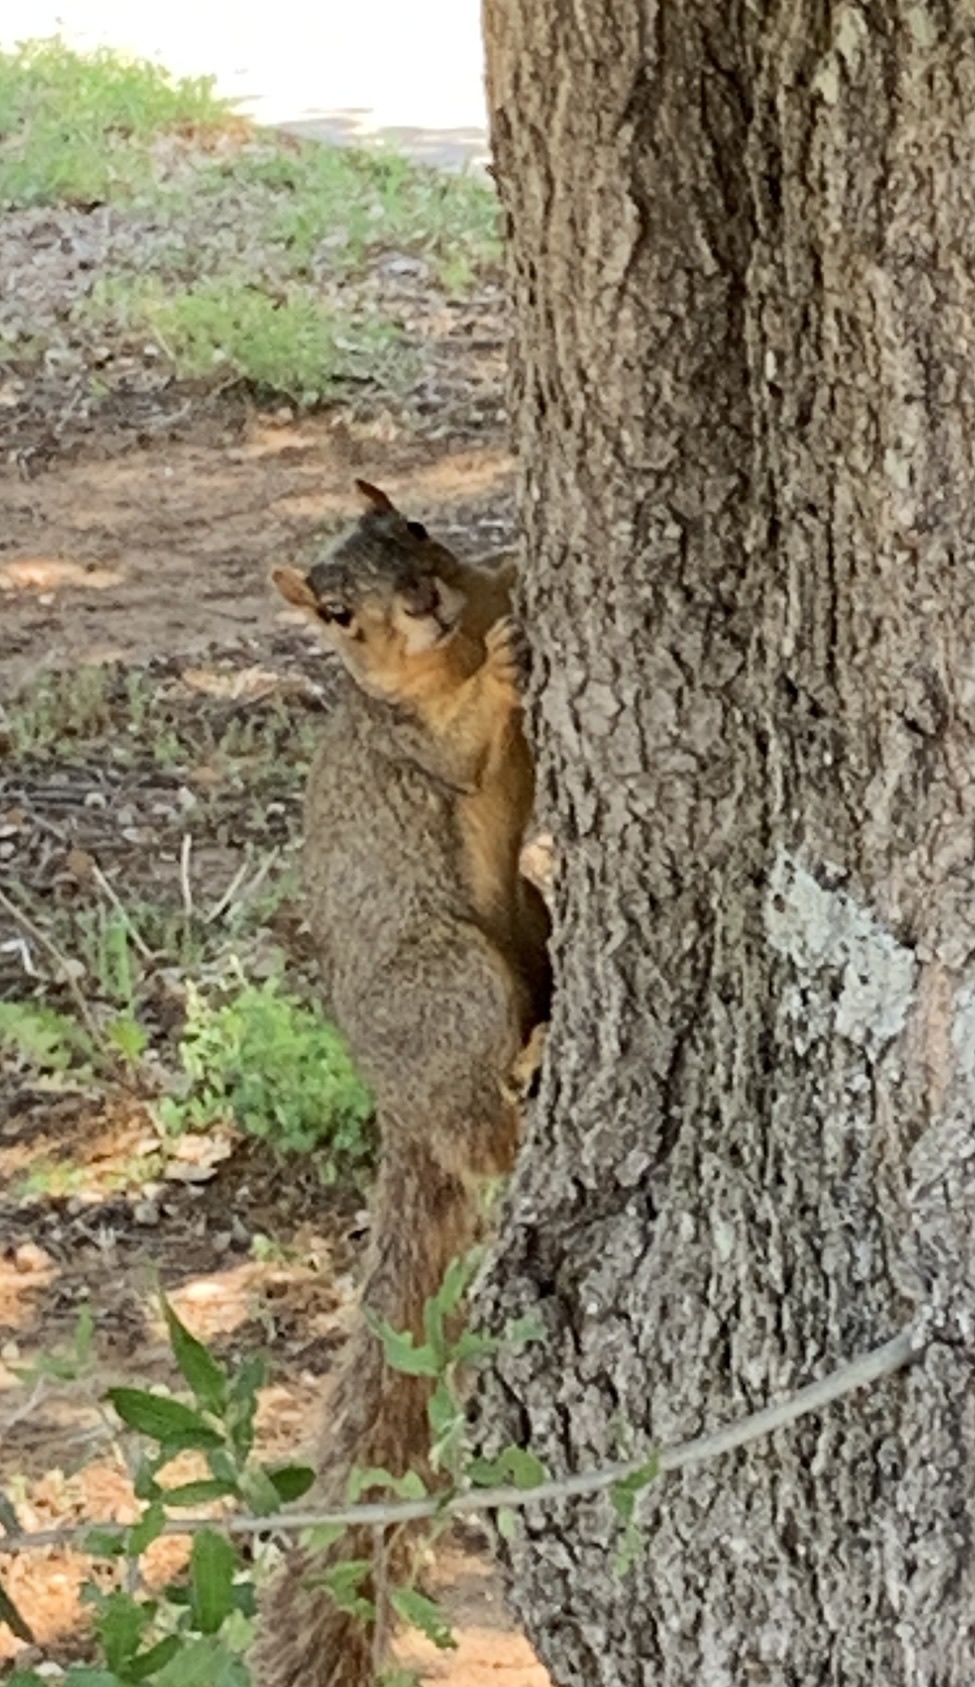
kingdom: Animalia
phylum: Chordata
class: Mammalia
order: Rodentia
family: Sciuridae
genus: Sciurus
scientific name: Sciurus niger
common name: Fox squirrel
